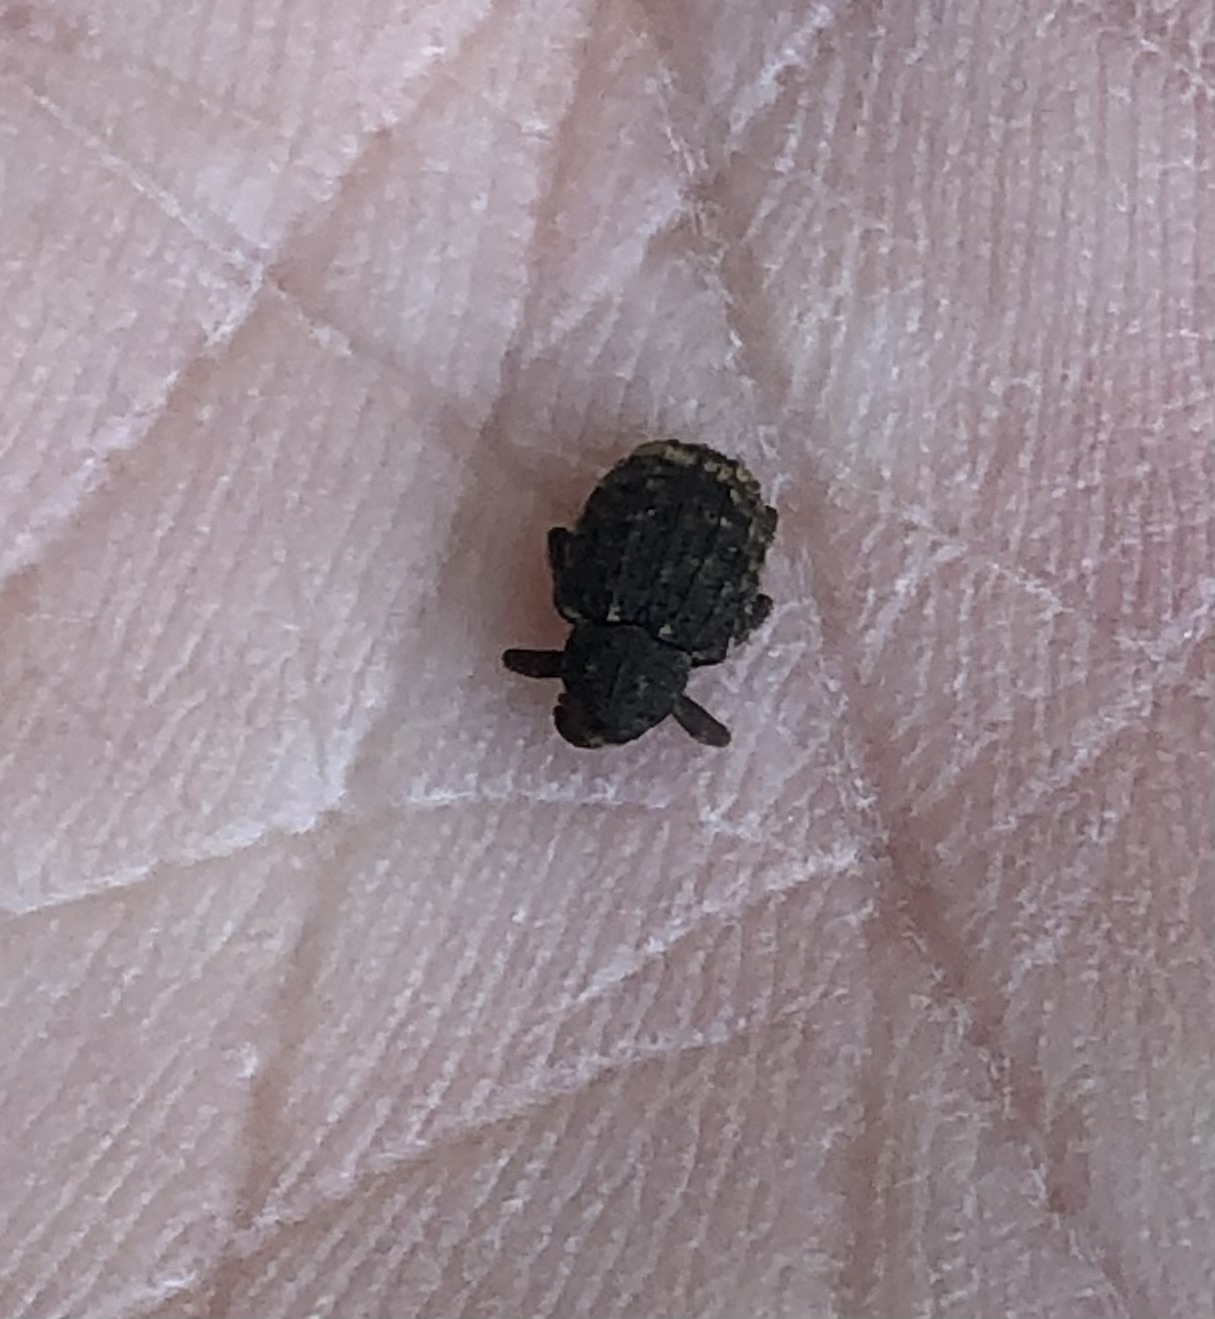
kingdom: Animalia
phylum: Arthropoda
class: Insecta
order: Coleoptera
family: Curculionidae
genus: Conotrachelus
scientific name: Conotrachelus carinifer
